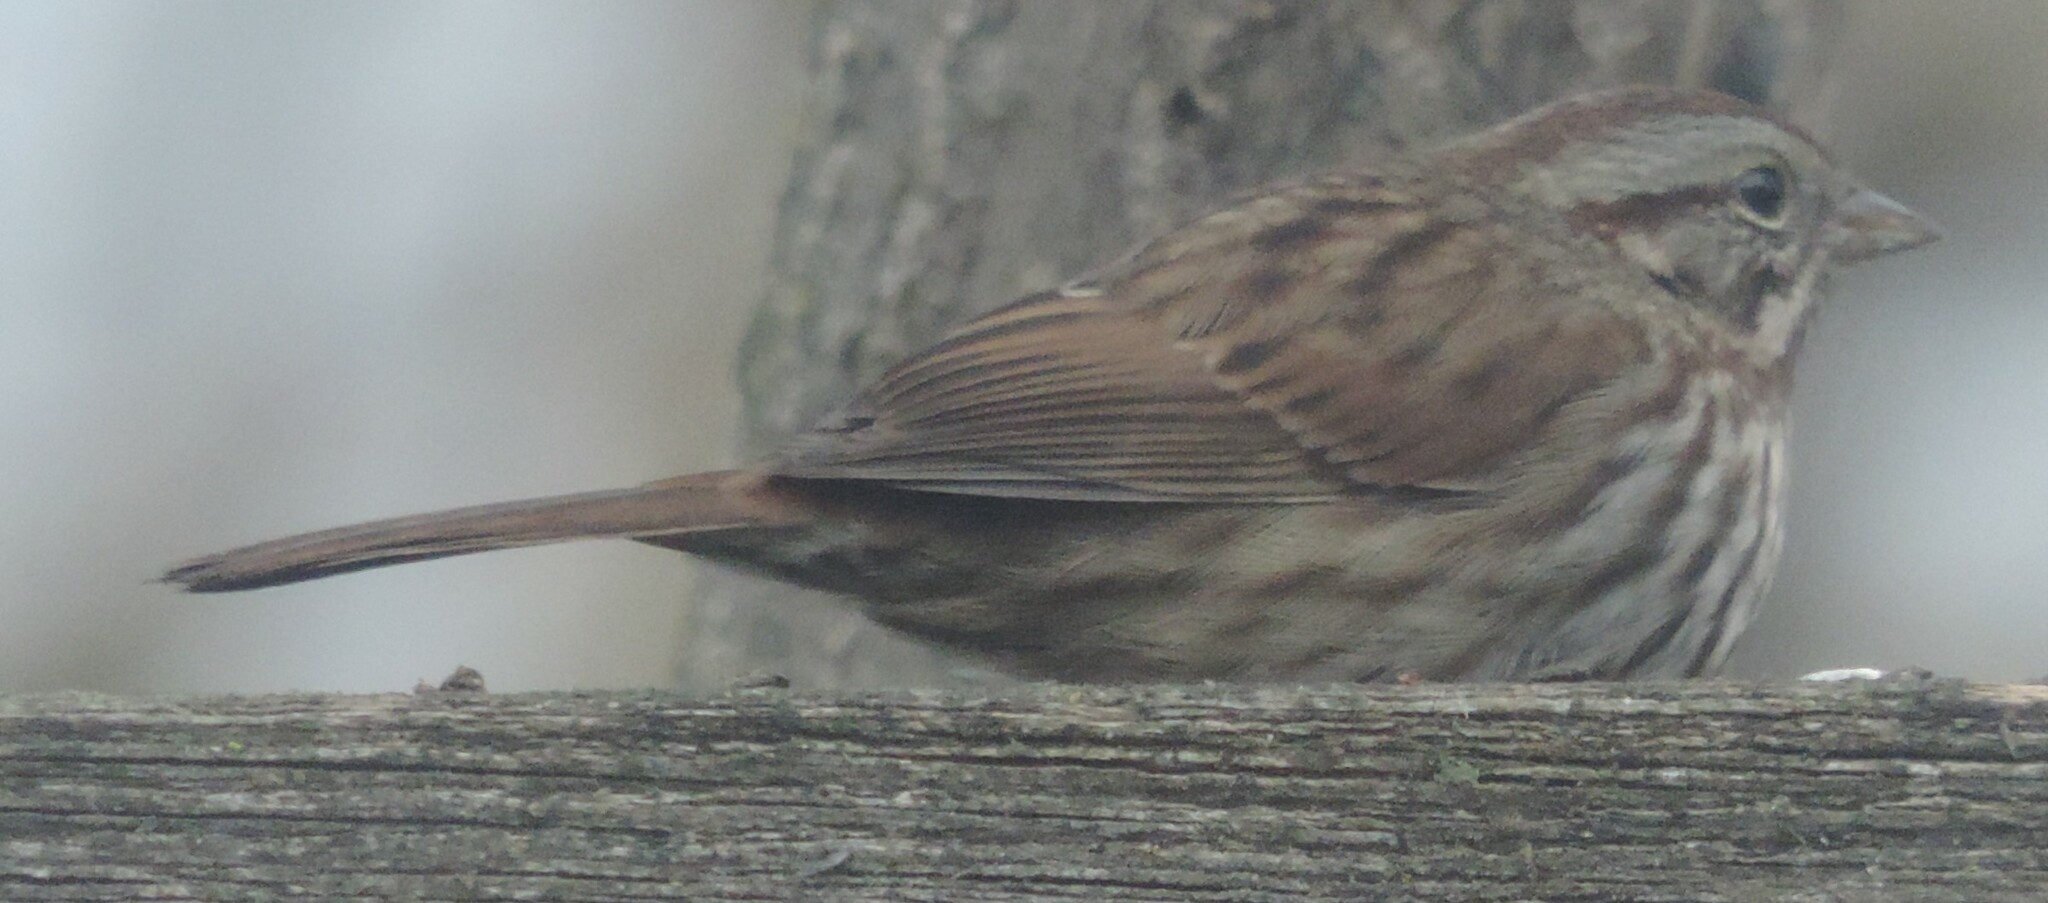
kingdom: Animalia
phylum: Chordata
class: Aves
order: Passeriformes
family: Passerellidae
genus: Melospiza
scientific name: Melospiza melodia
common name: Song sparrow
